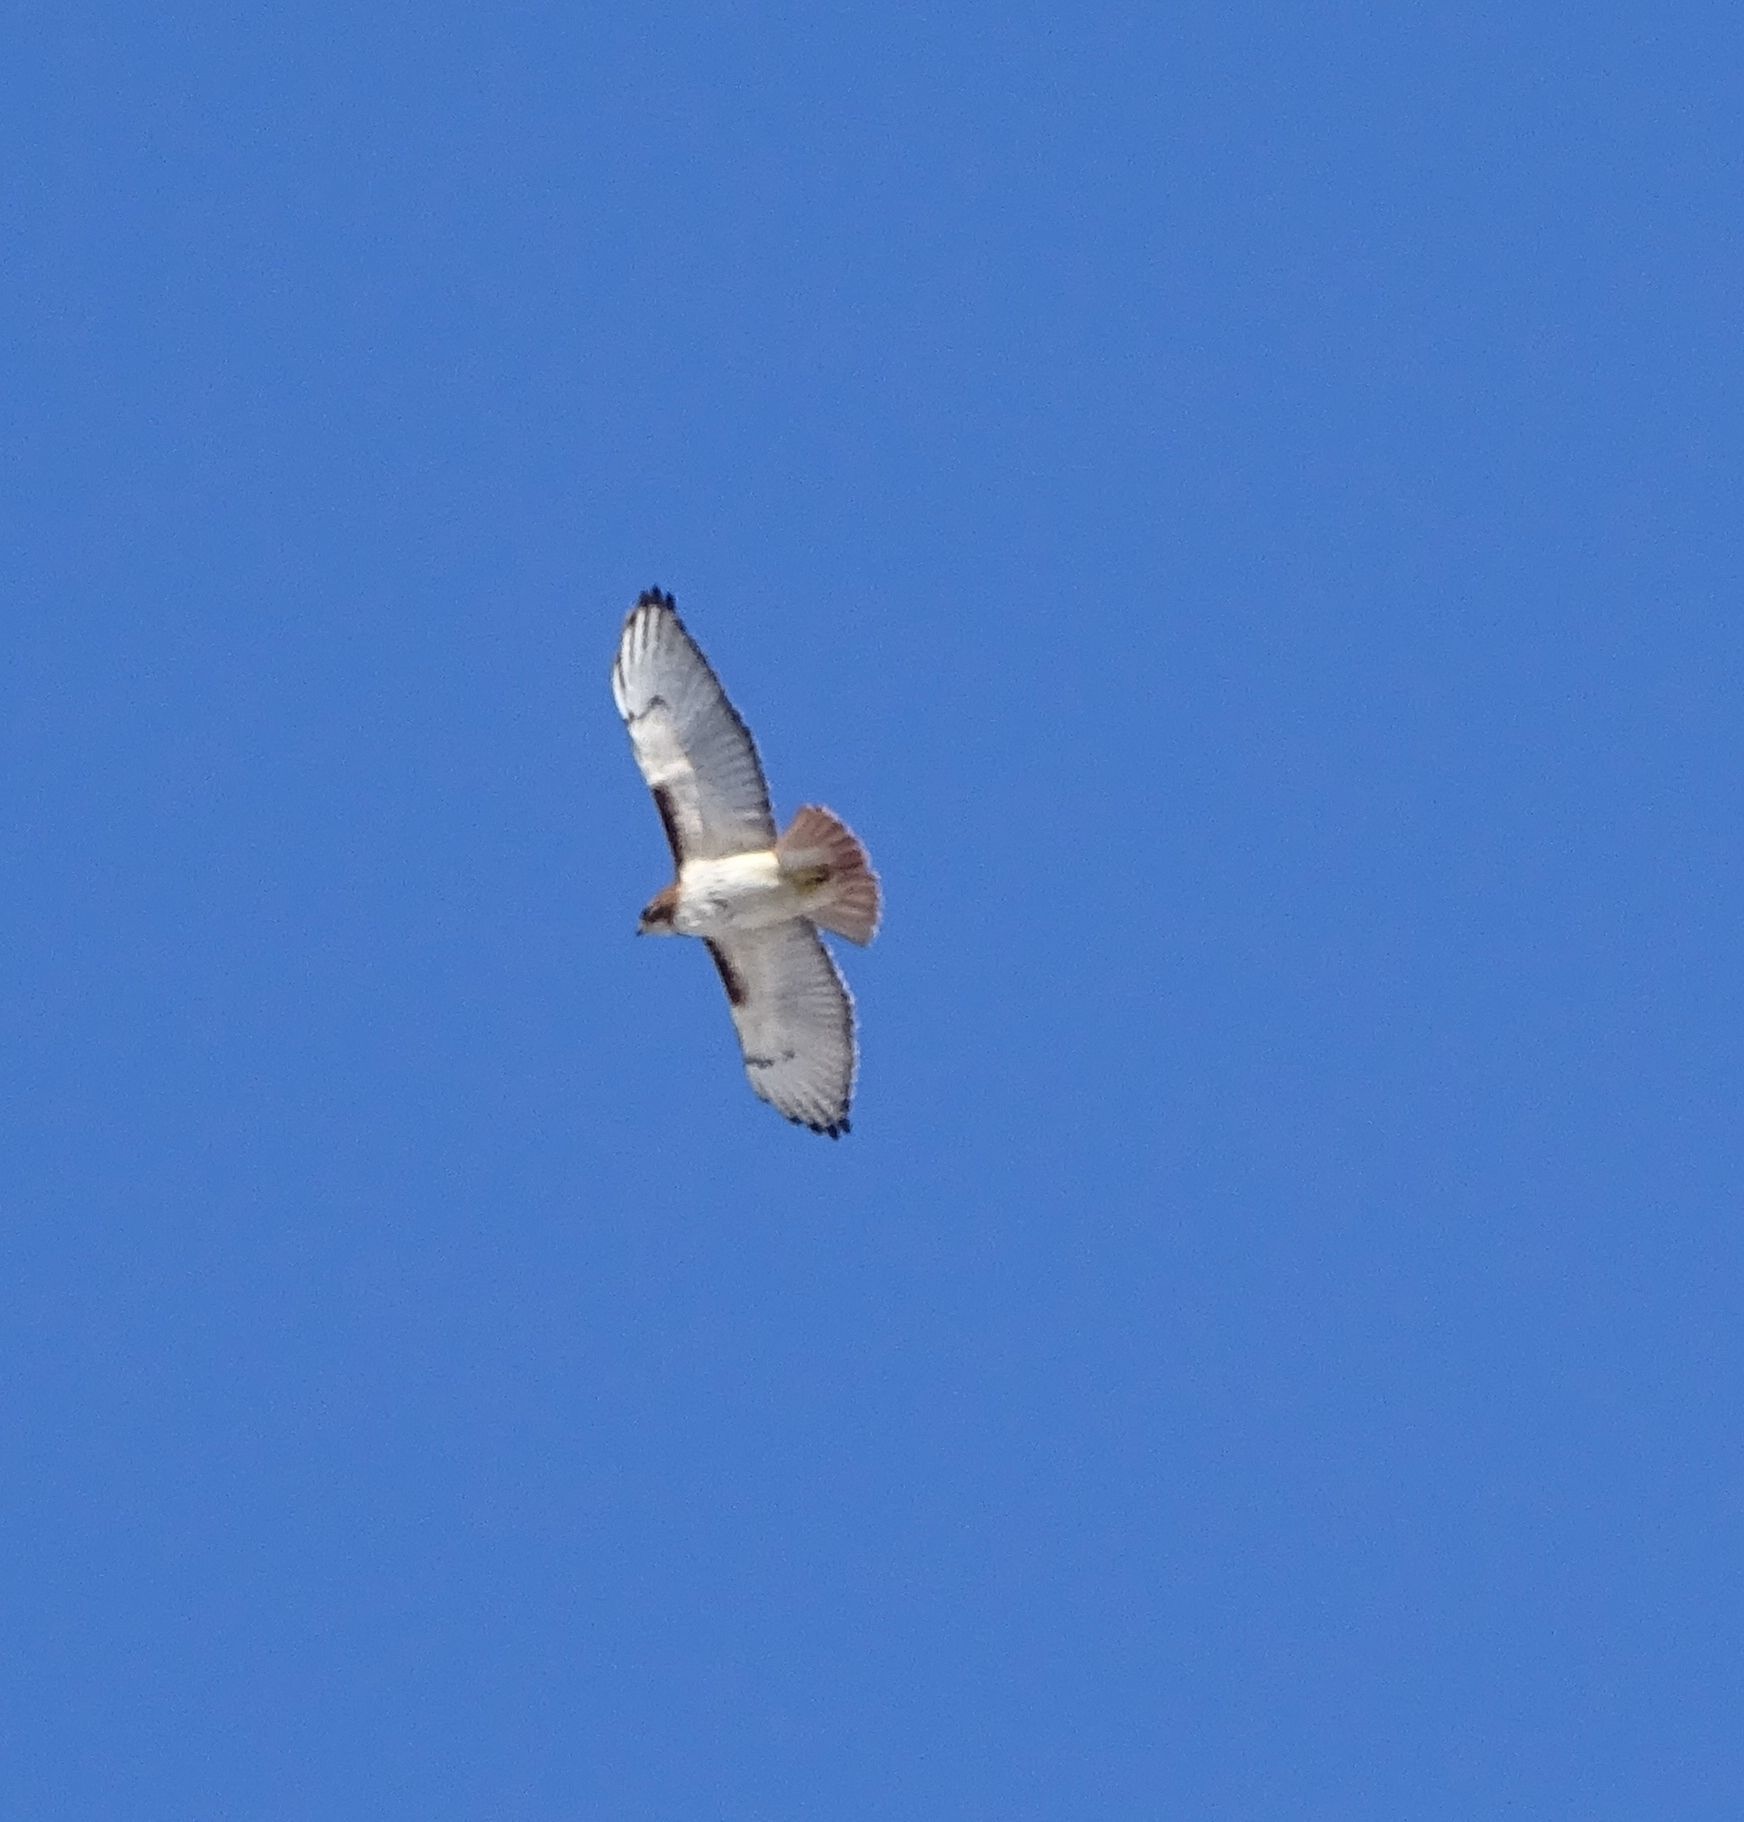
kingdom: Animalia
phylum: Chordata
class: Aves
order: Accipitriformes
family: Accipitridae
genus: Buteo
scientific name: Buteo jamaicensis
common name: Red-tailed hawk
